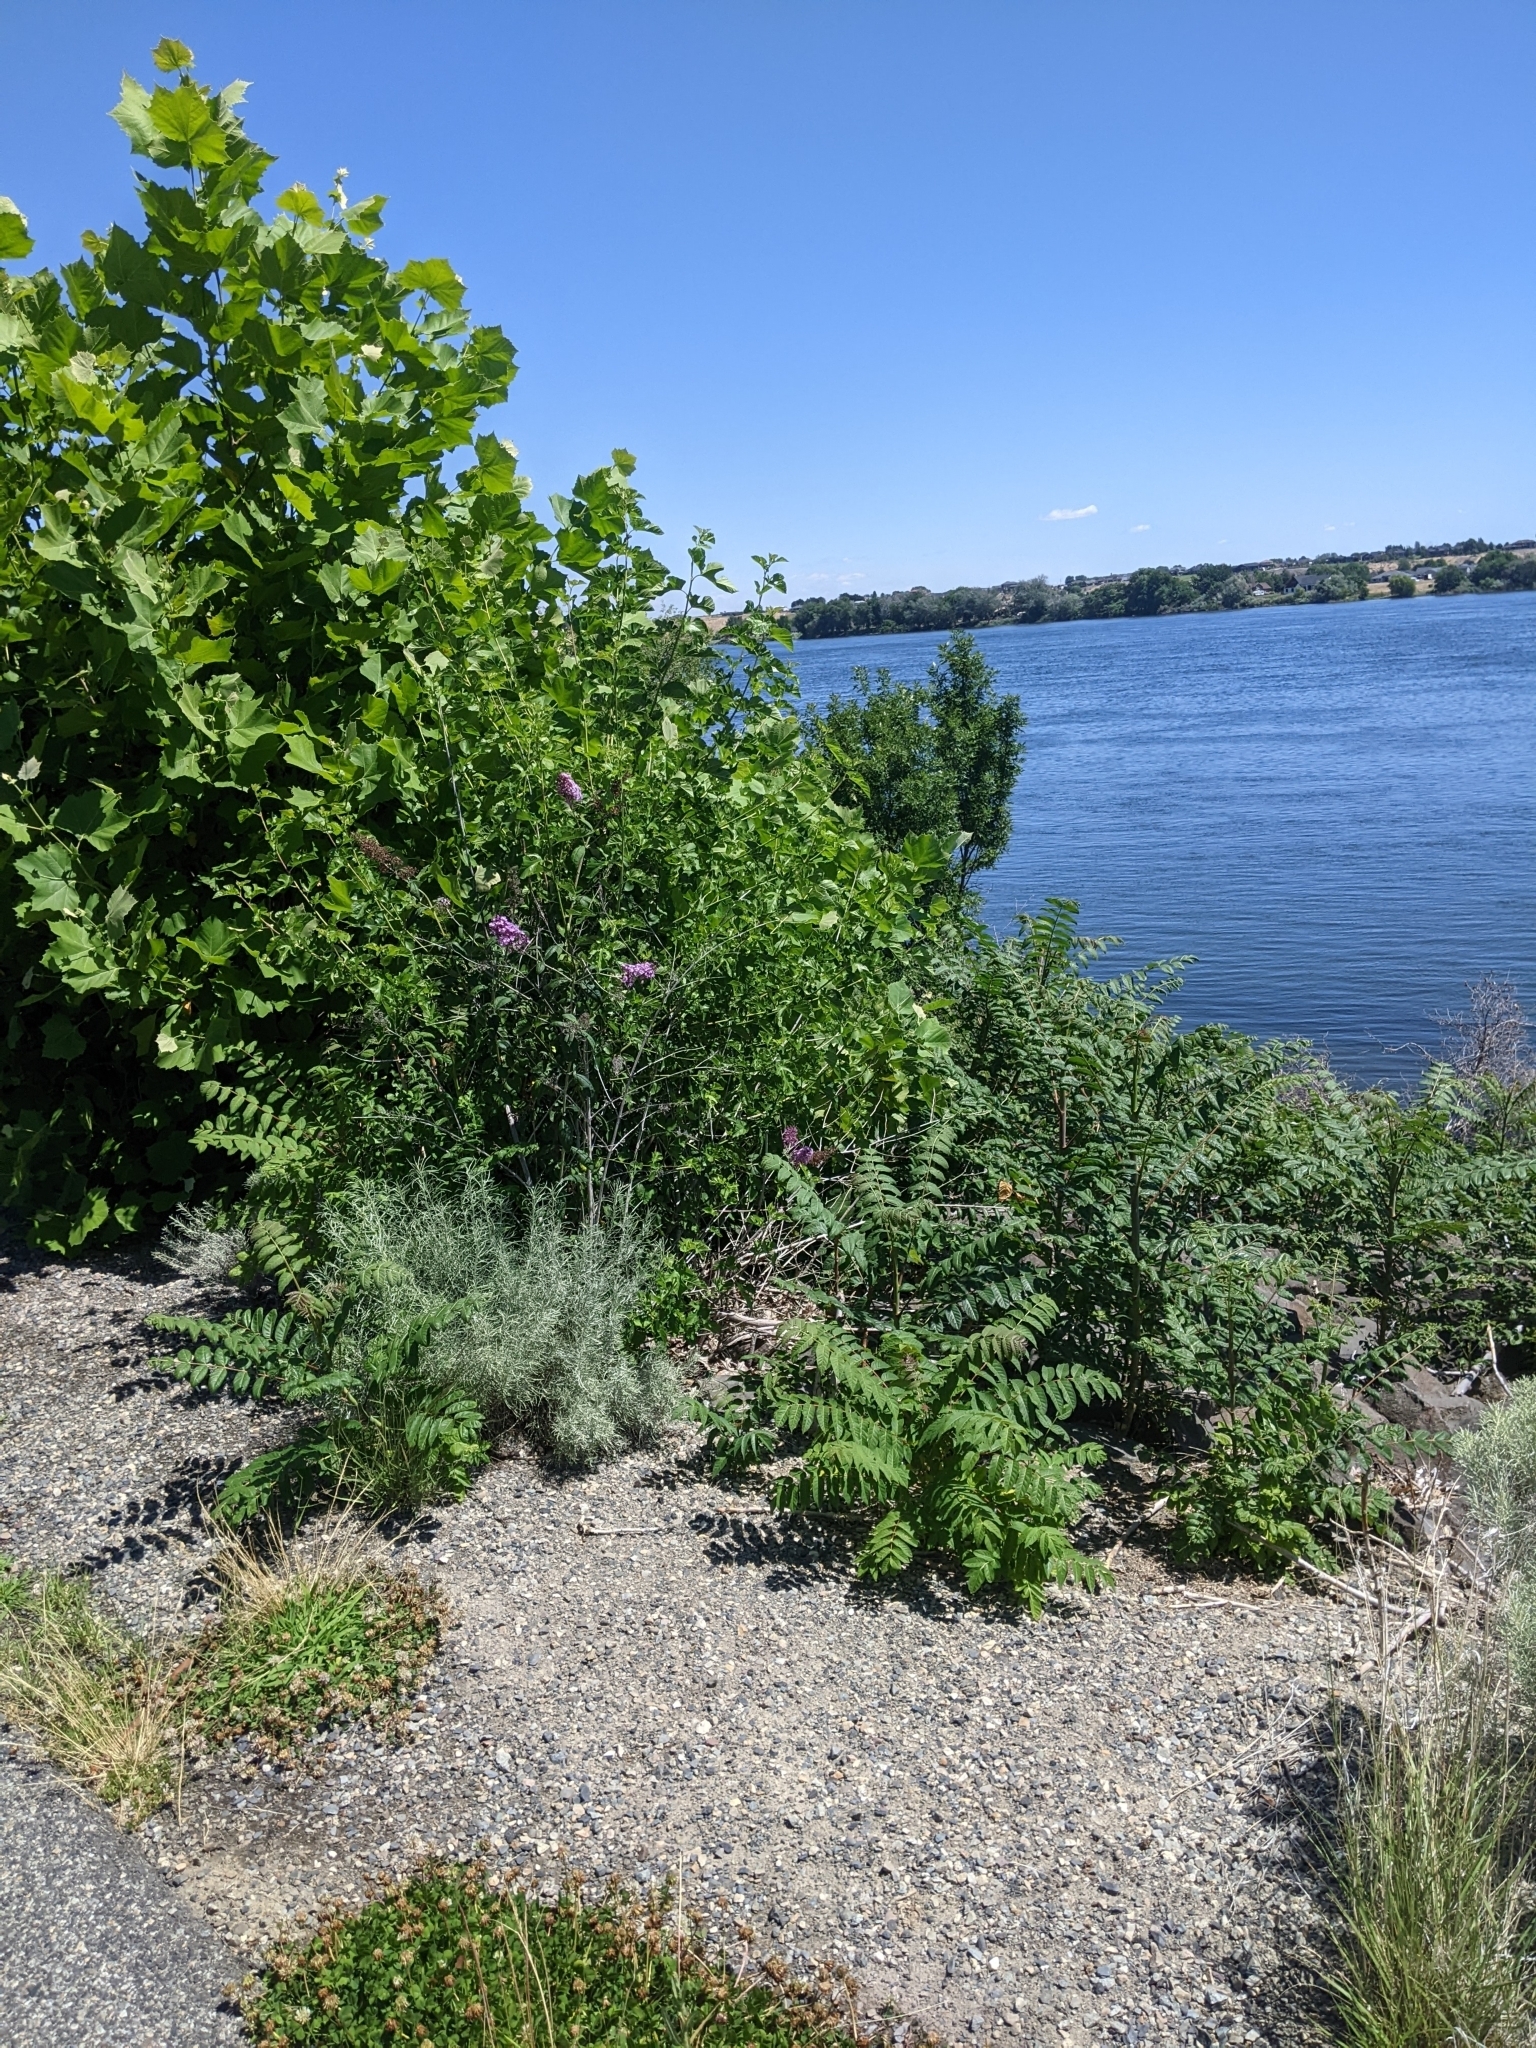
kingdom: Plantae
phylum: Tracheophyta
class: Magnoliopsida
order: Lamiales
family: Scrophulariaceae
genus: Buddleja
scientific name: Buddleja davidii
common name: Butterfly-bush
